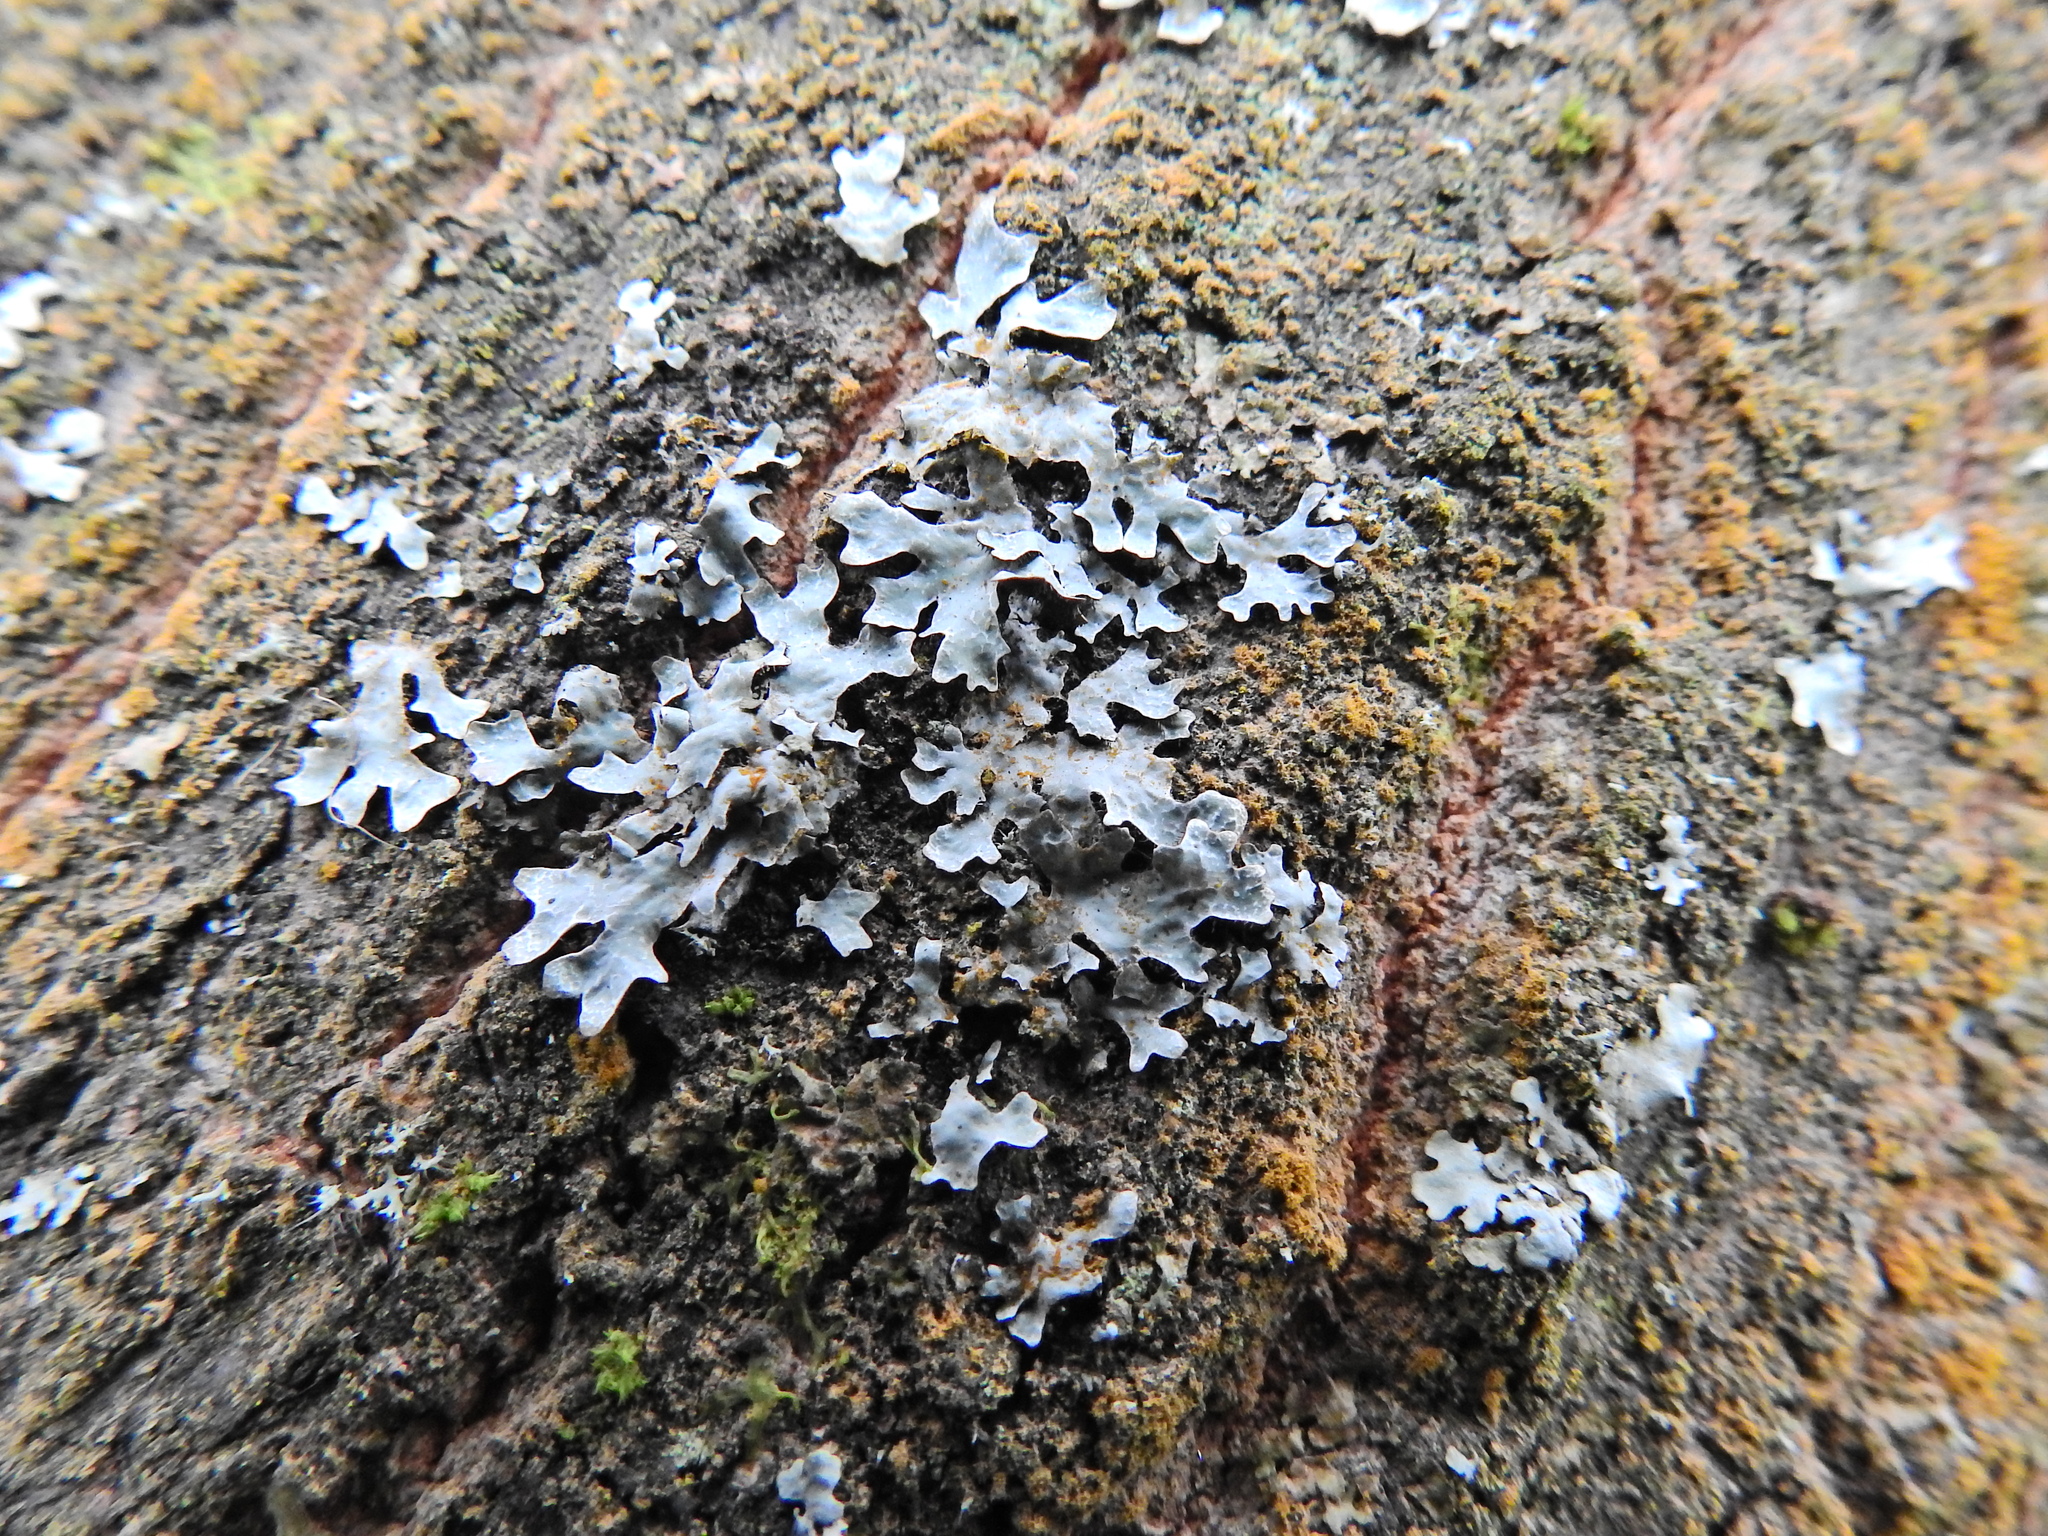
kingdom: Fungi
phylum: Ascomycota
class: Lecanoromycetes
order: Lecanorales
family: Parmeliaceae
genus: Parmelia
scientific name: Parmelia sulcata
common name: Netted shield lichen
